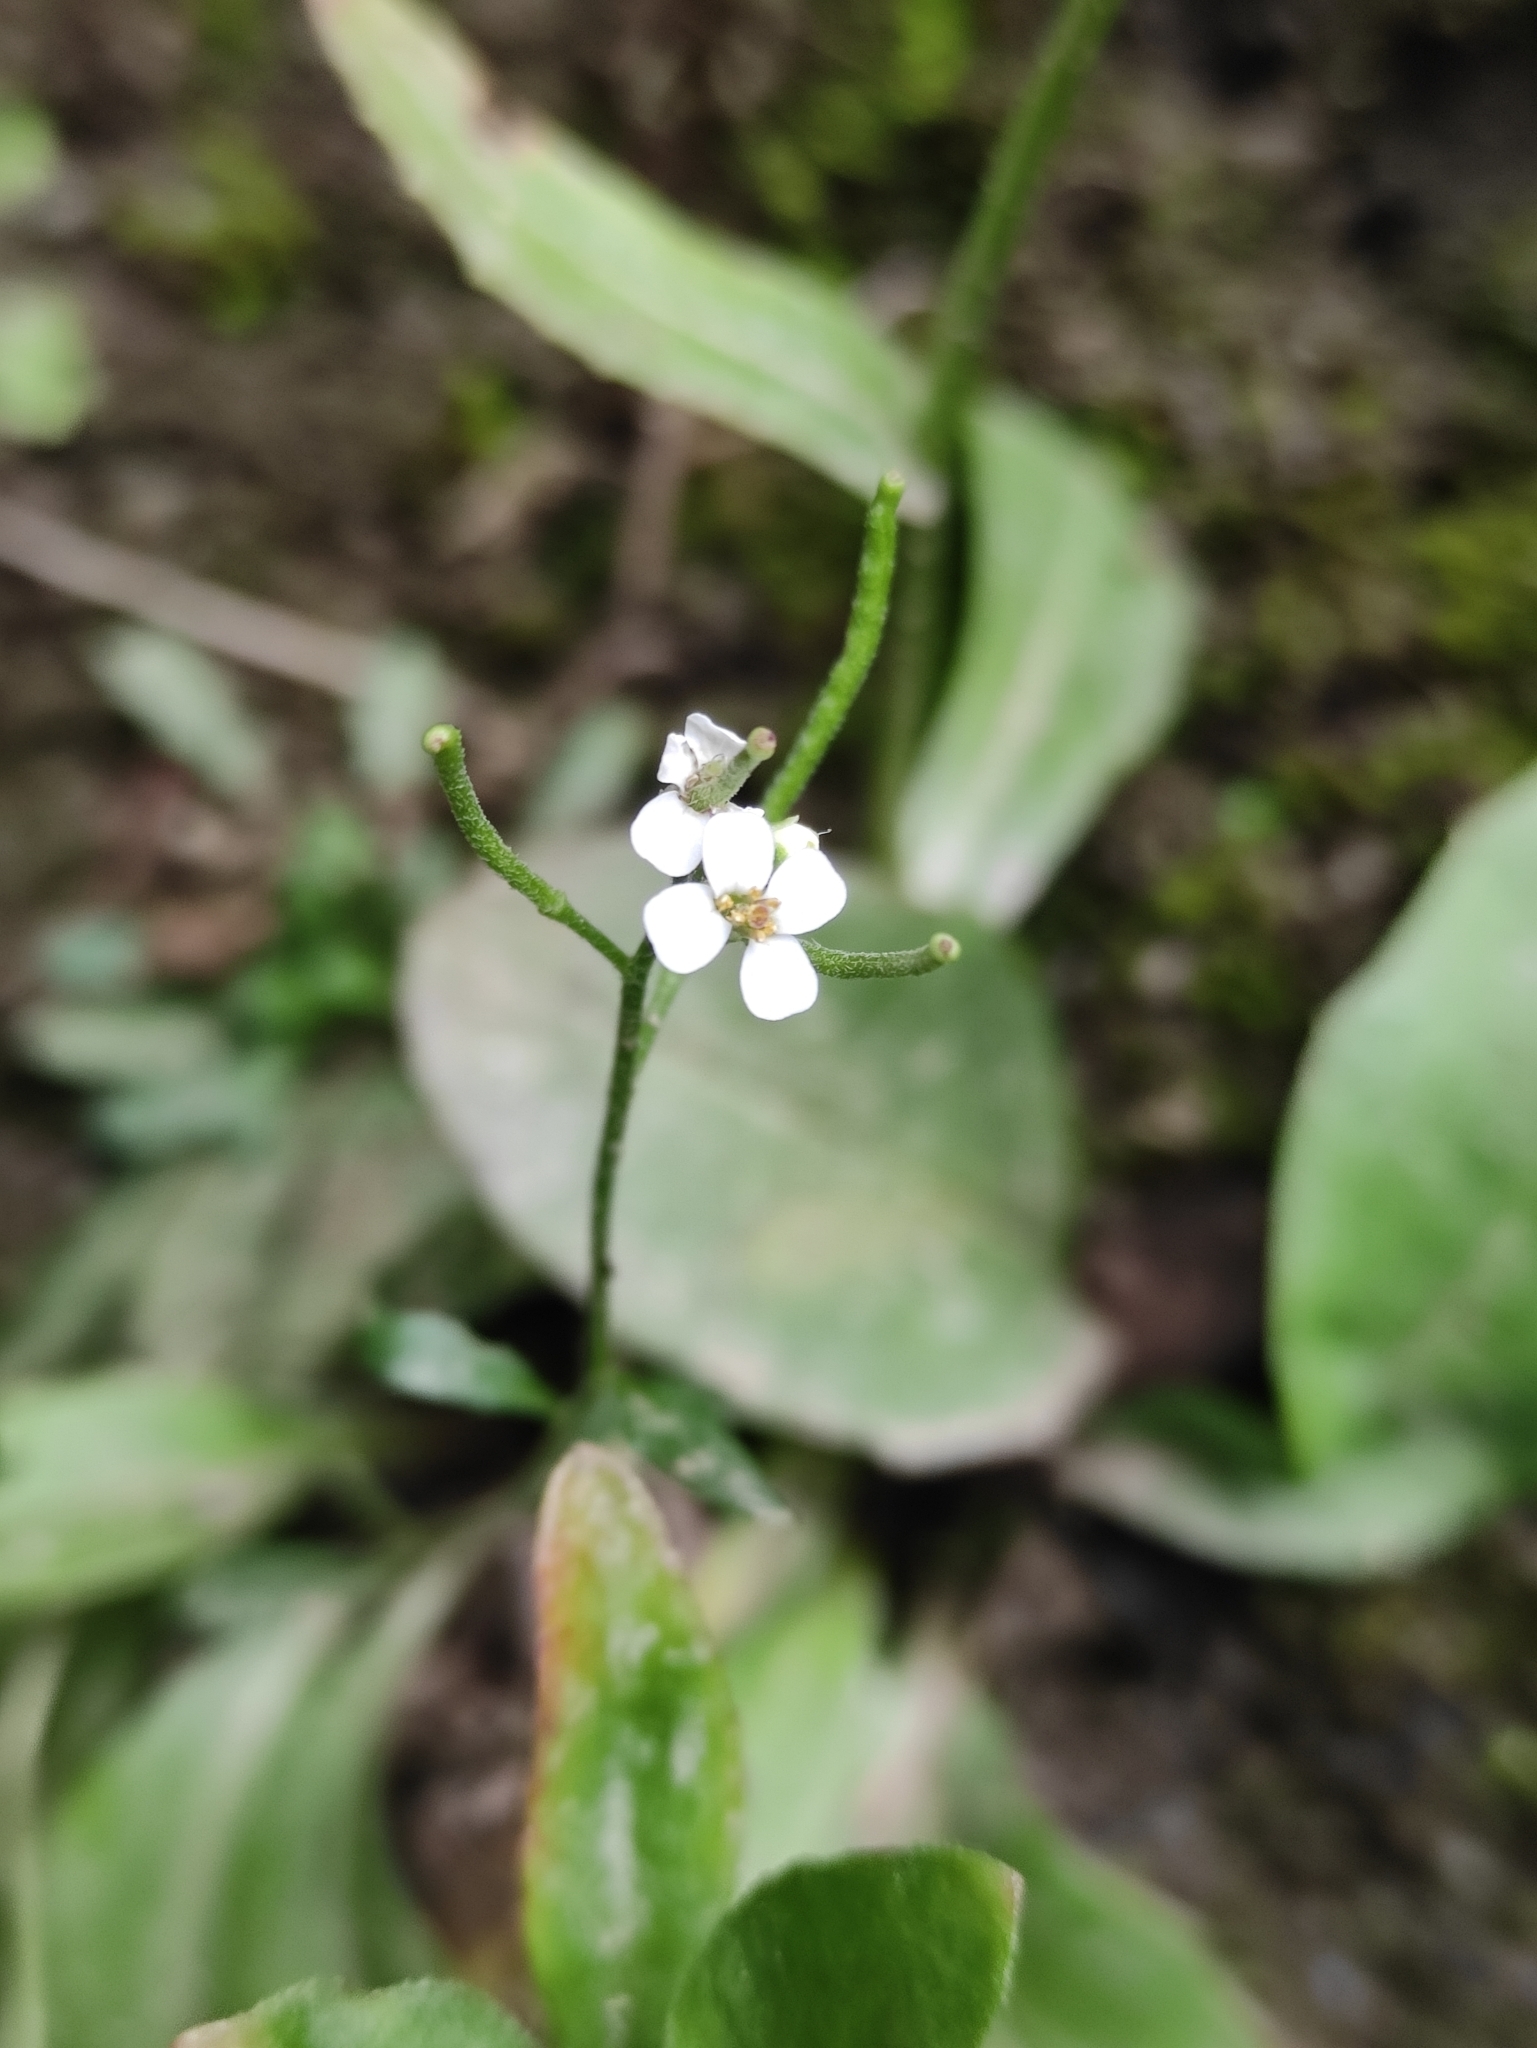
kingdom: Plantae
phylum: Tracheophyta
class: Magnoliopsida
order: Brassicales
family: Brassicaceae
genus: Braya
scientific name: Braya humilis
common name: Alpine northern rockcress
